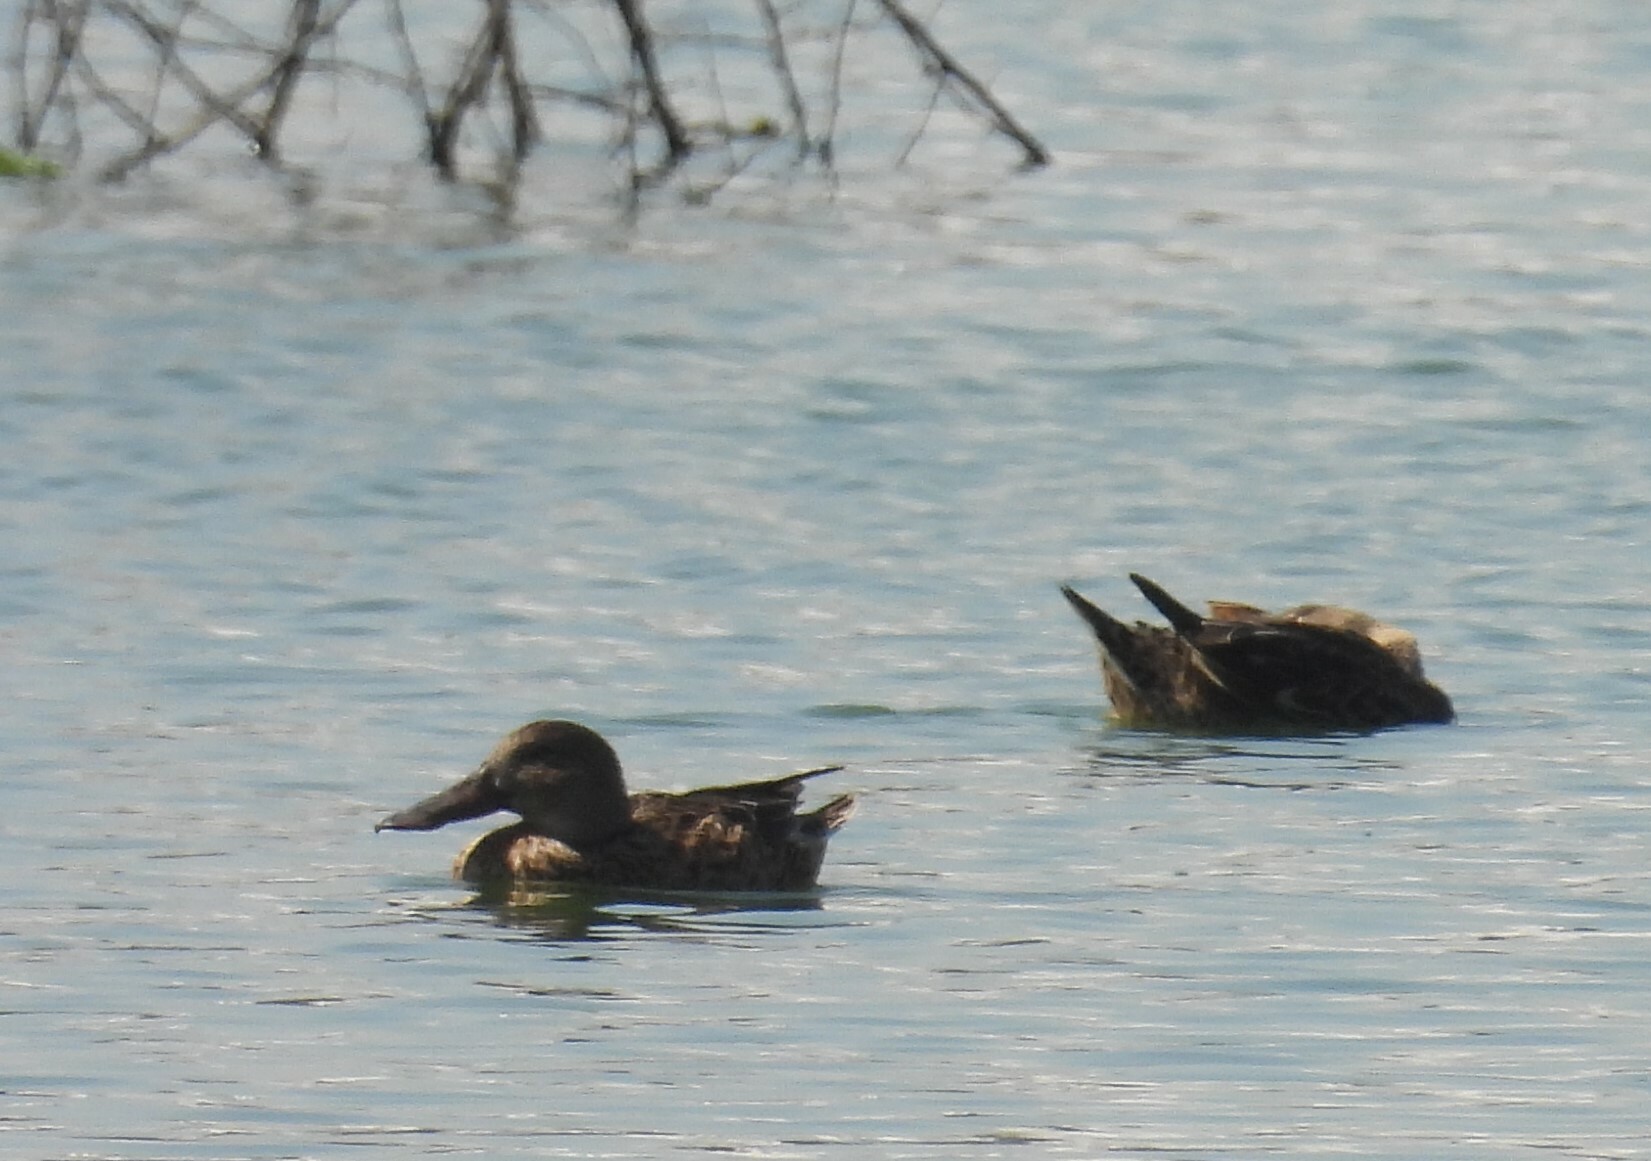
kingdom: Animalia
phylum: Chordata
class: Aves
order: Anseriformes
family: Anatidae
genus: Spatula
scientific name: Spatula clypeata
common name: Northern shoveler
